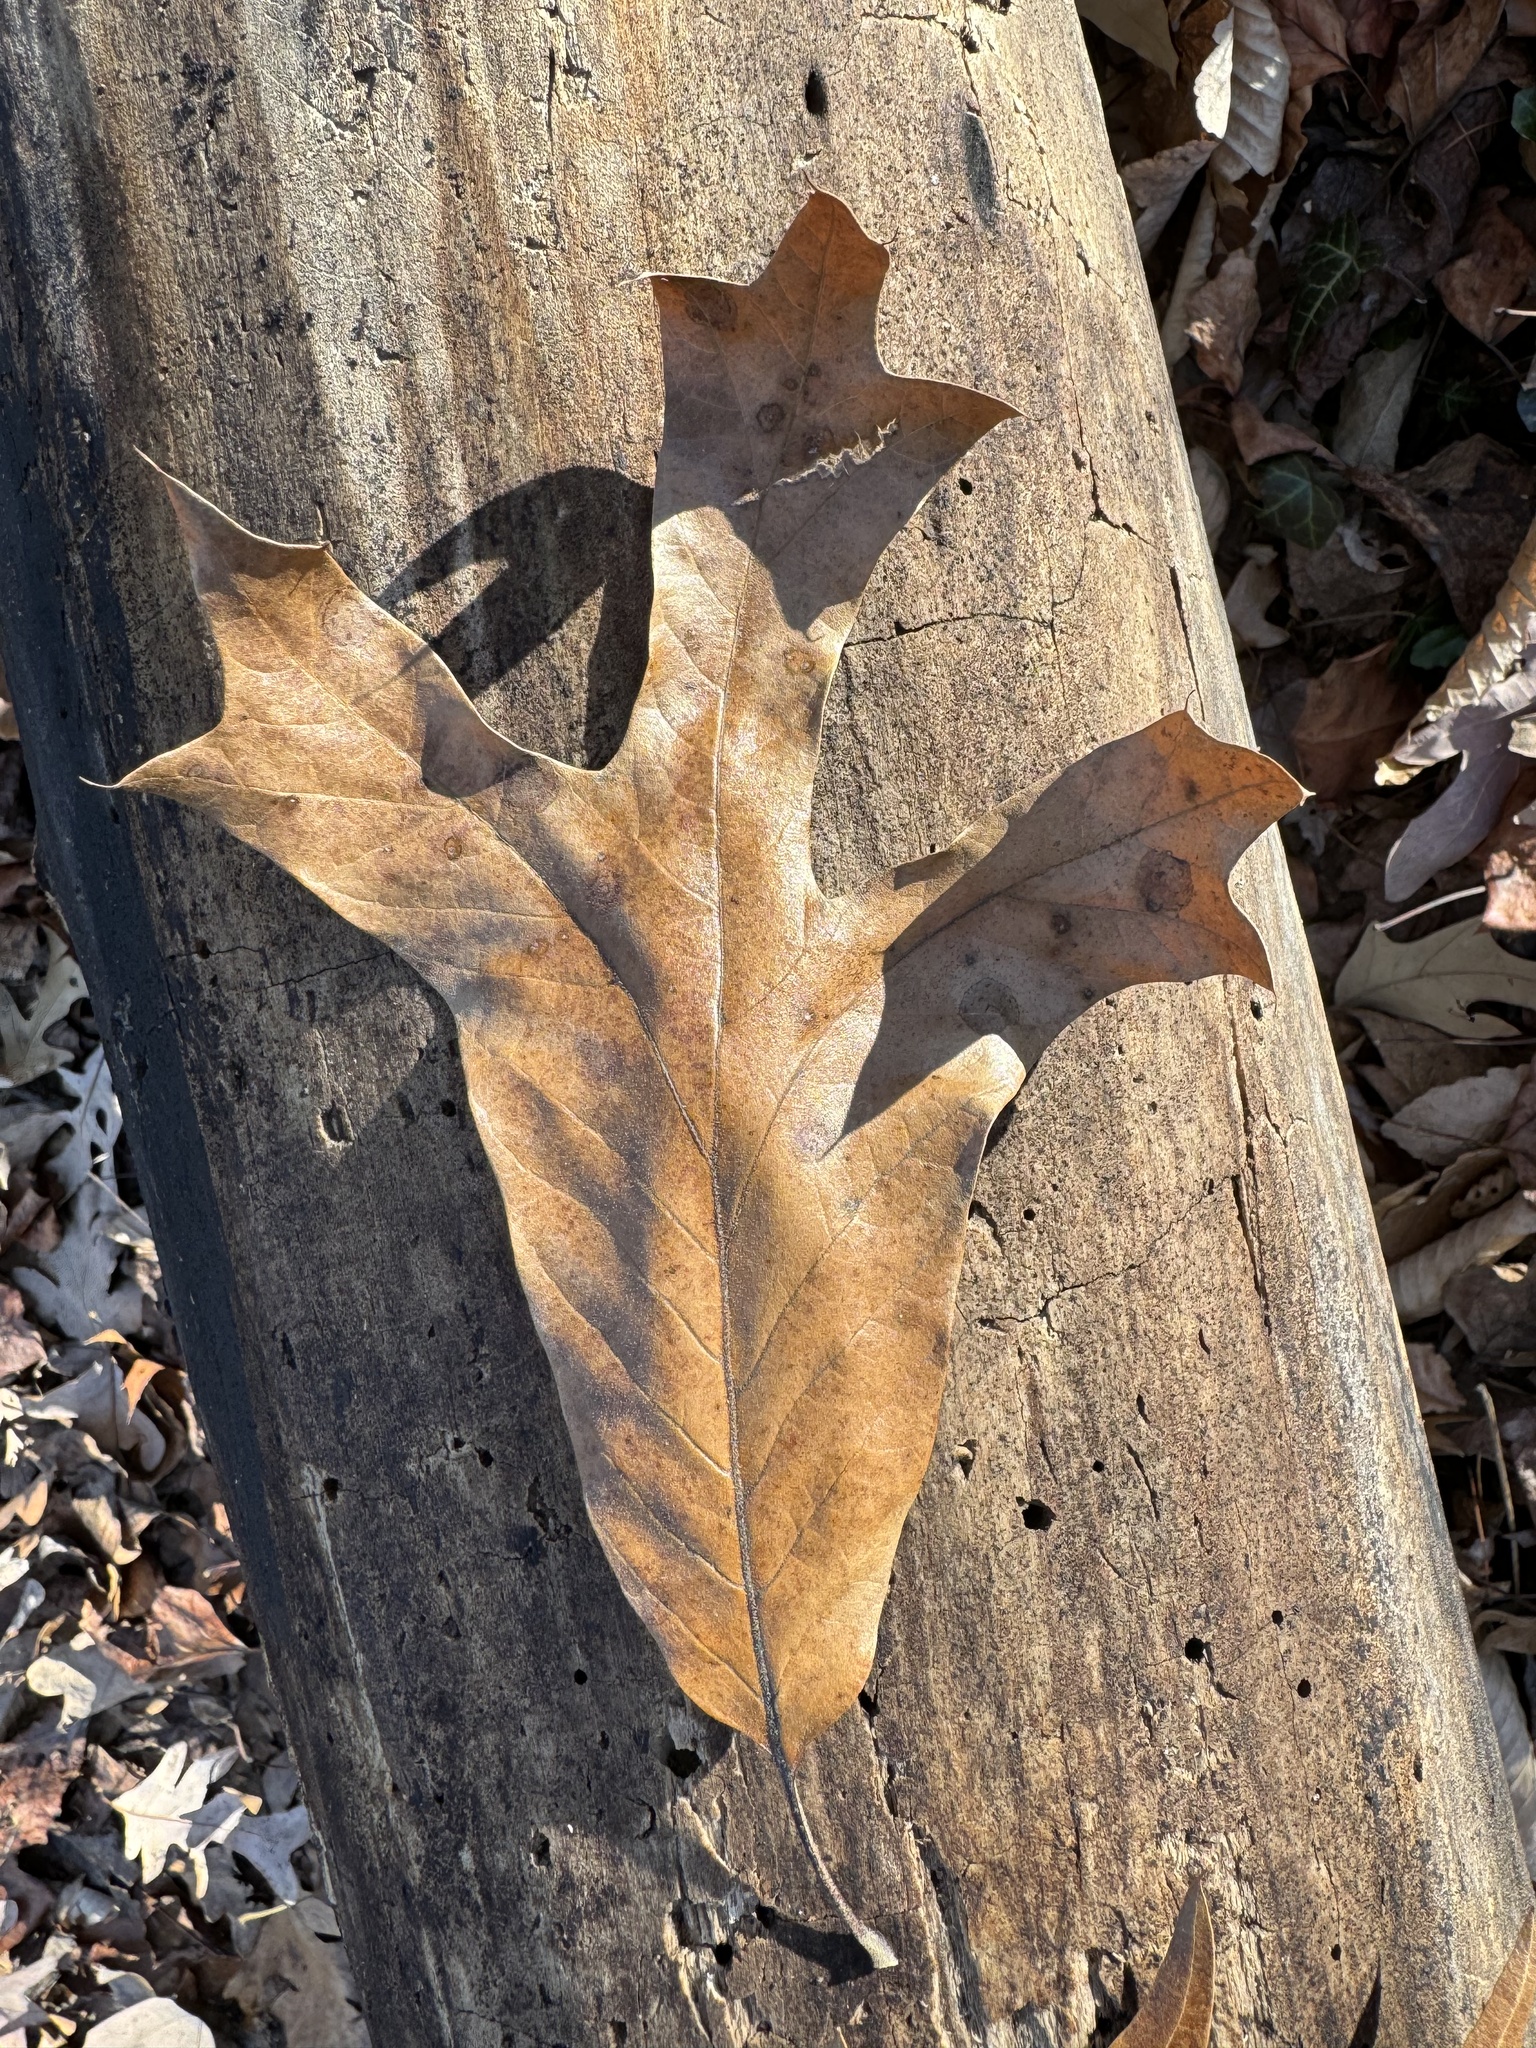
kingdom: Plantae
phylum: Tracheophyta
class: Magnoliopsida
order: Fagales
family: Fagaceae
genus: Quercus
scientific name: Quercus falcata
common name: Southern red oak
